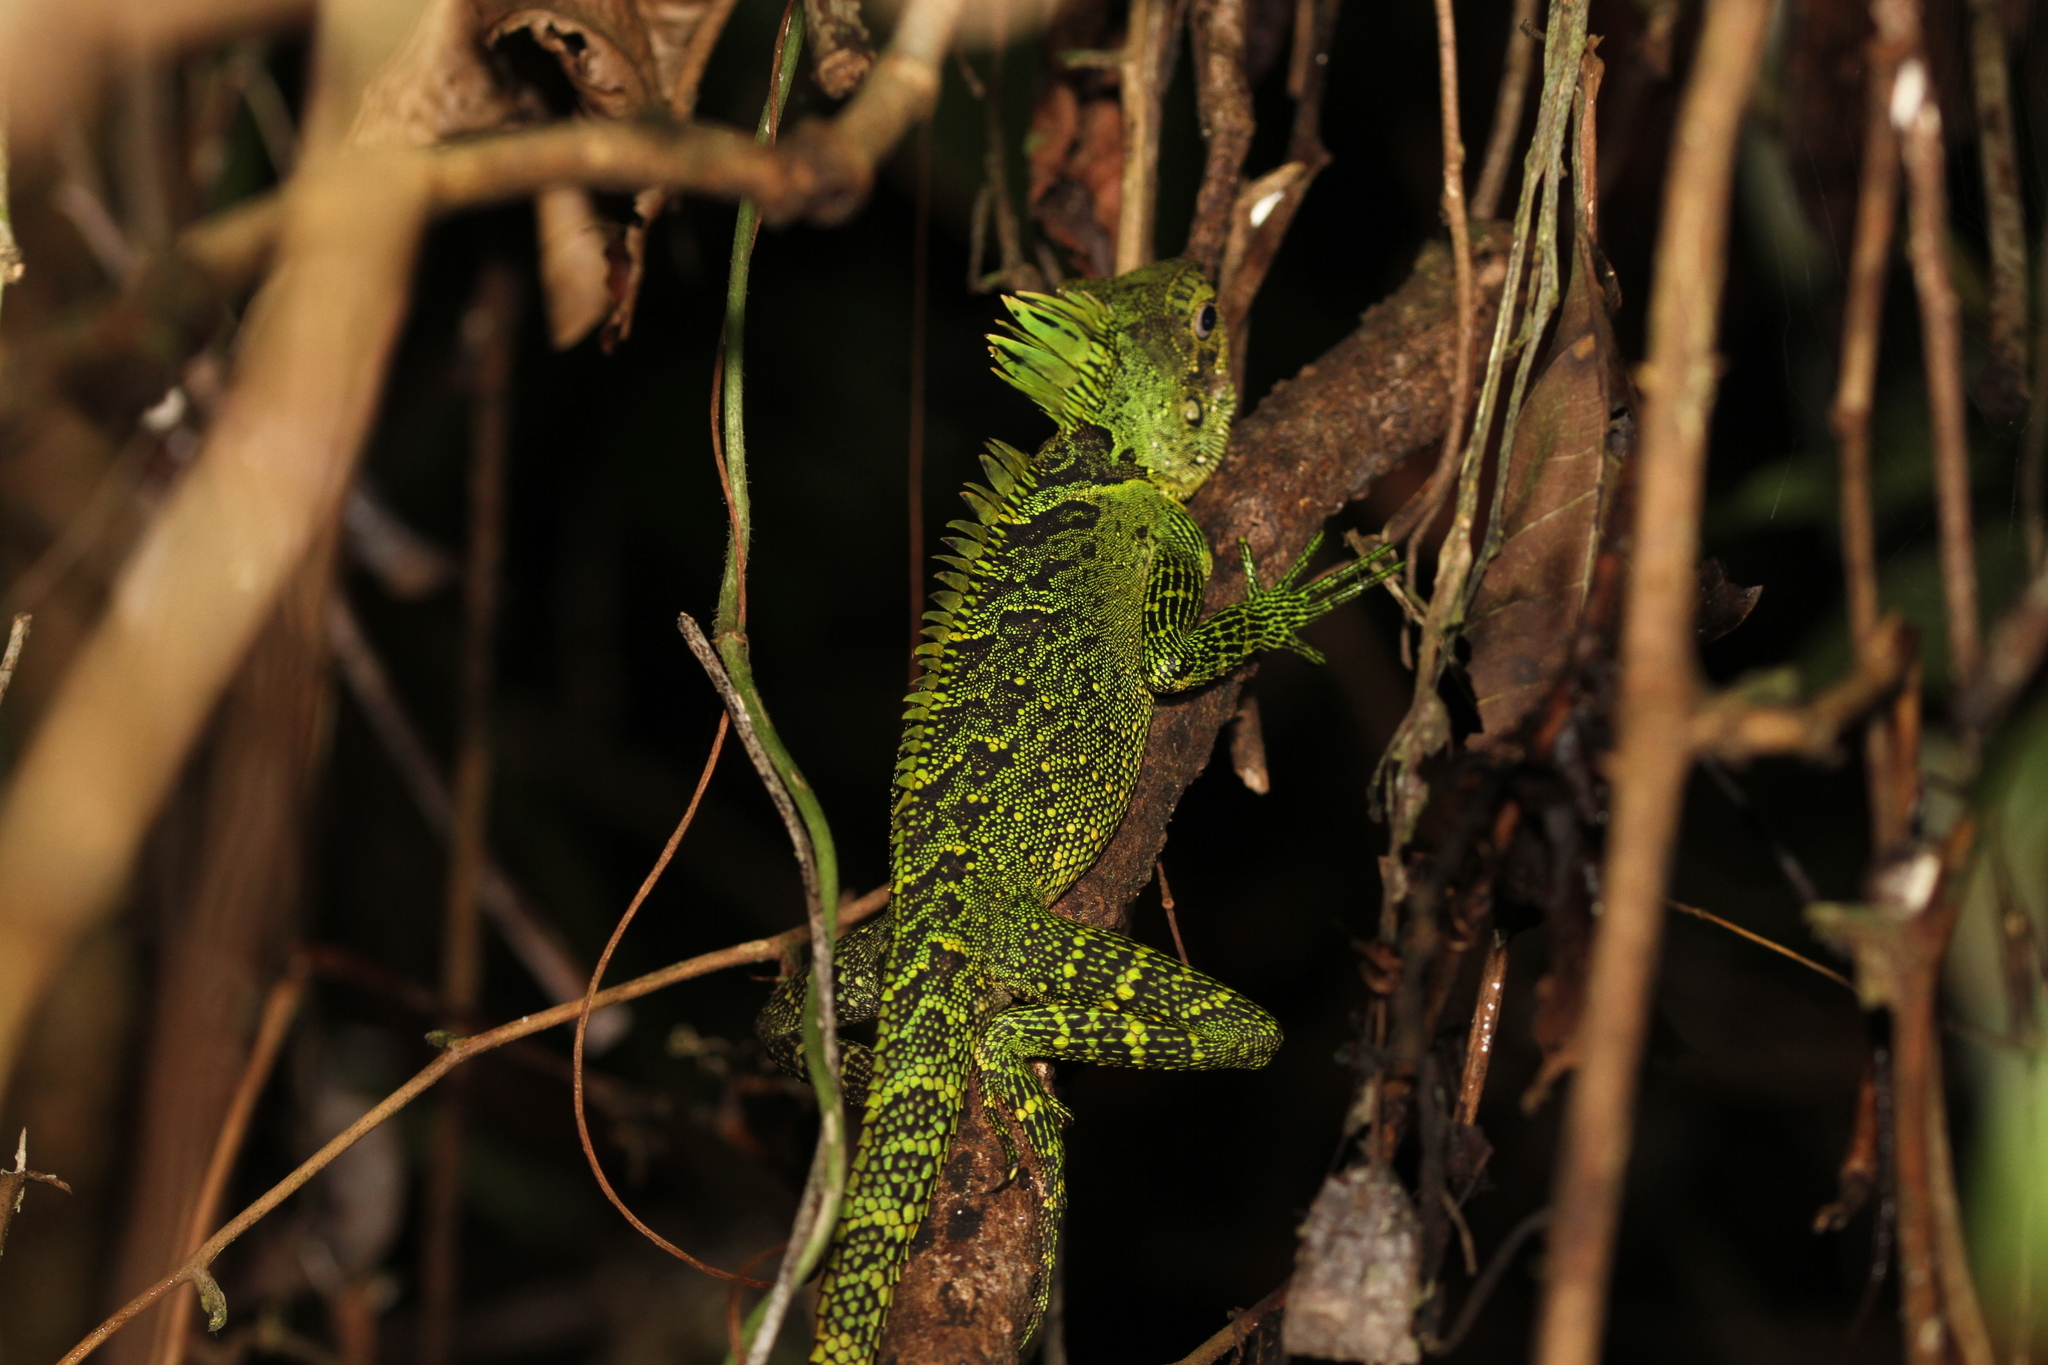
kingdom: Animalia
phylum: Chordata
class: Squamata
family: Agamidae
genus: Gonocephalus
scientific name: Gonocephalus klossi
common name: Kloss' forest dragon
